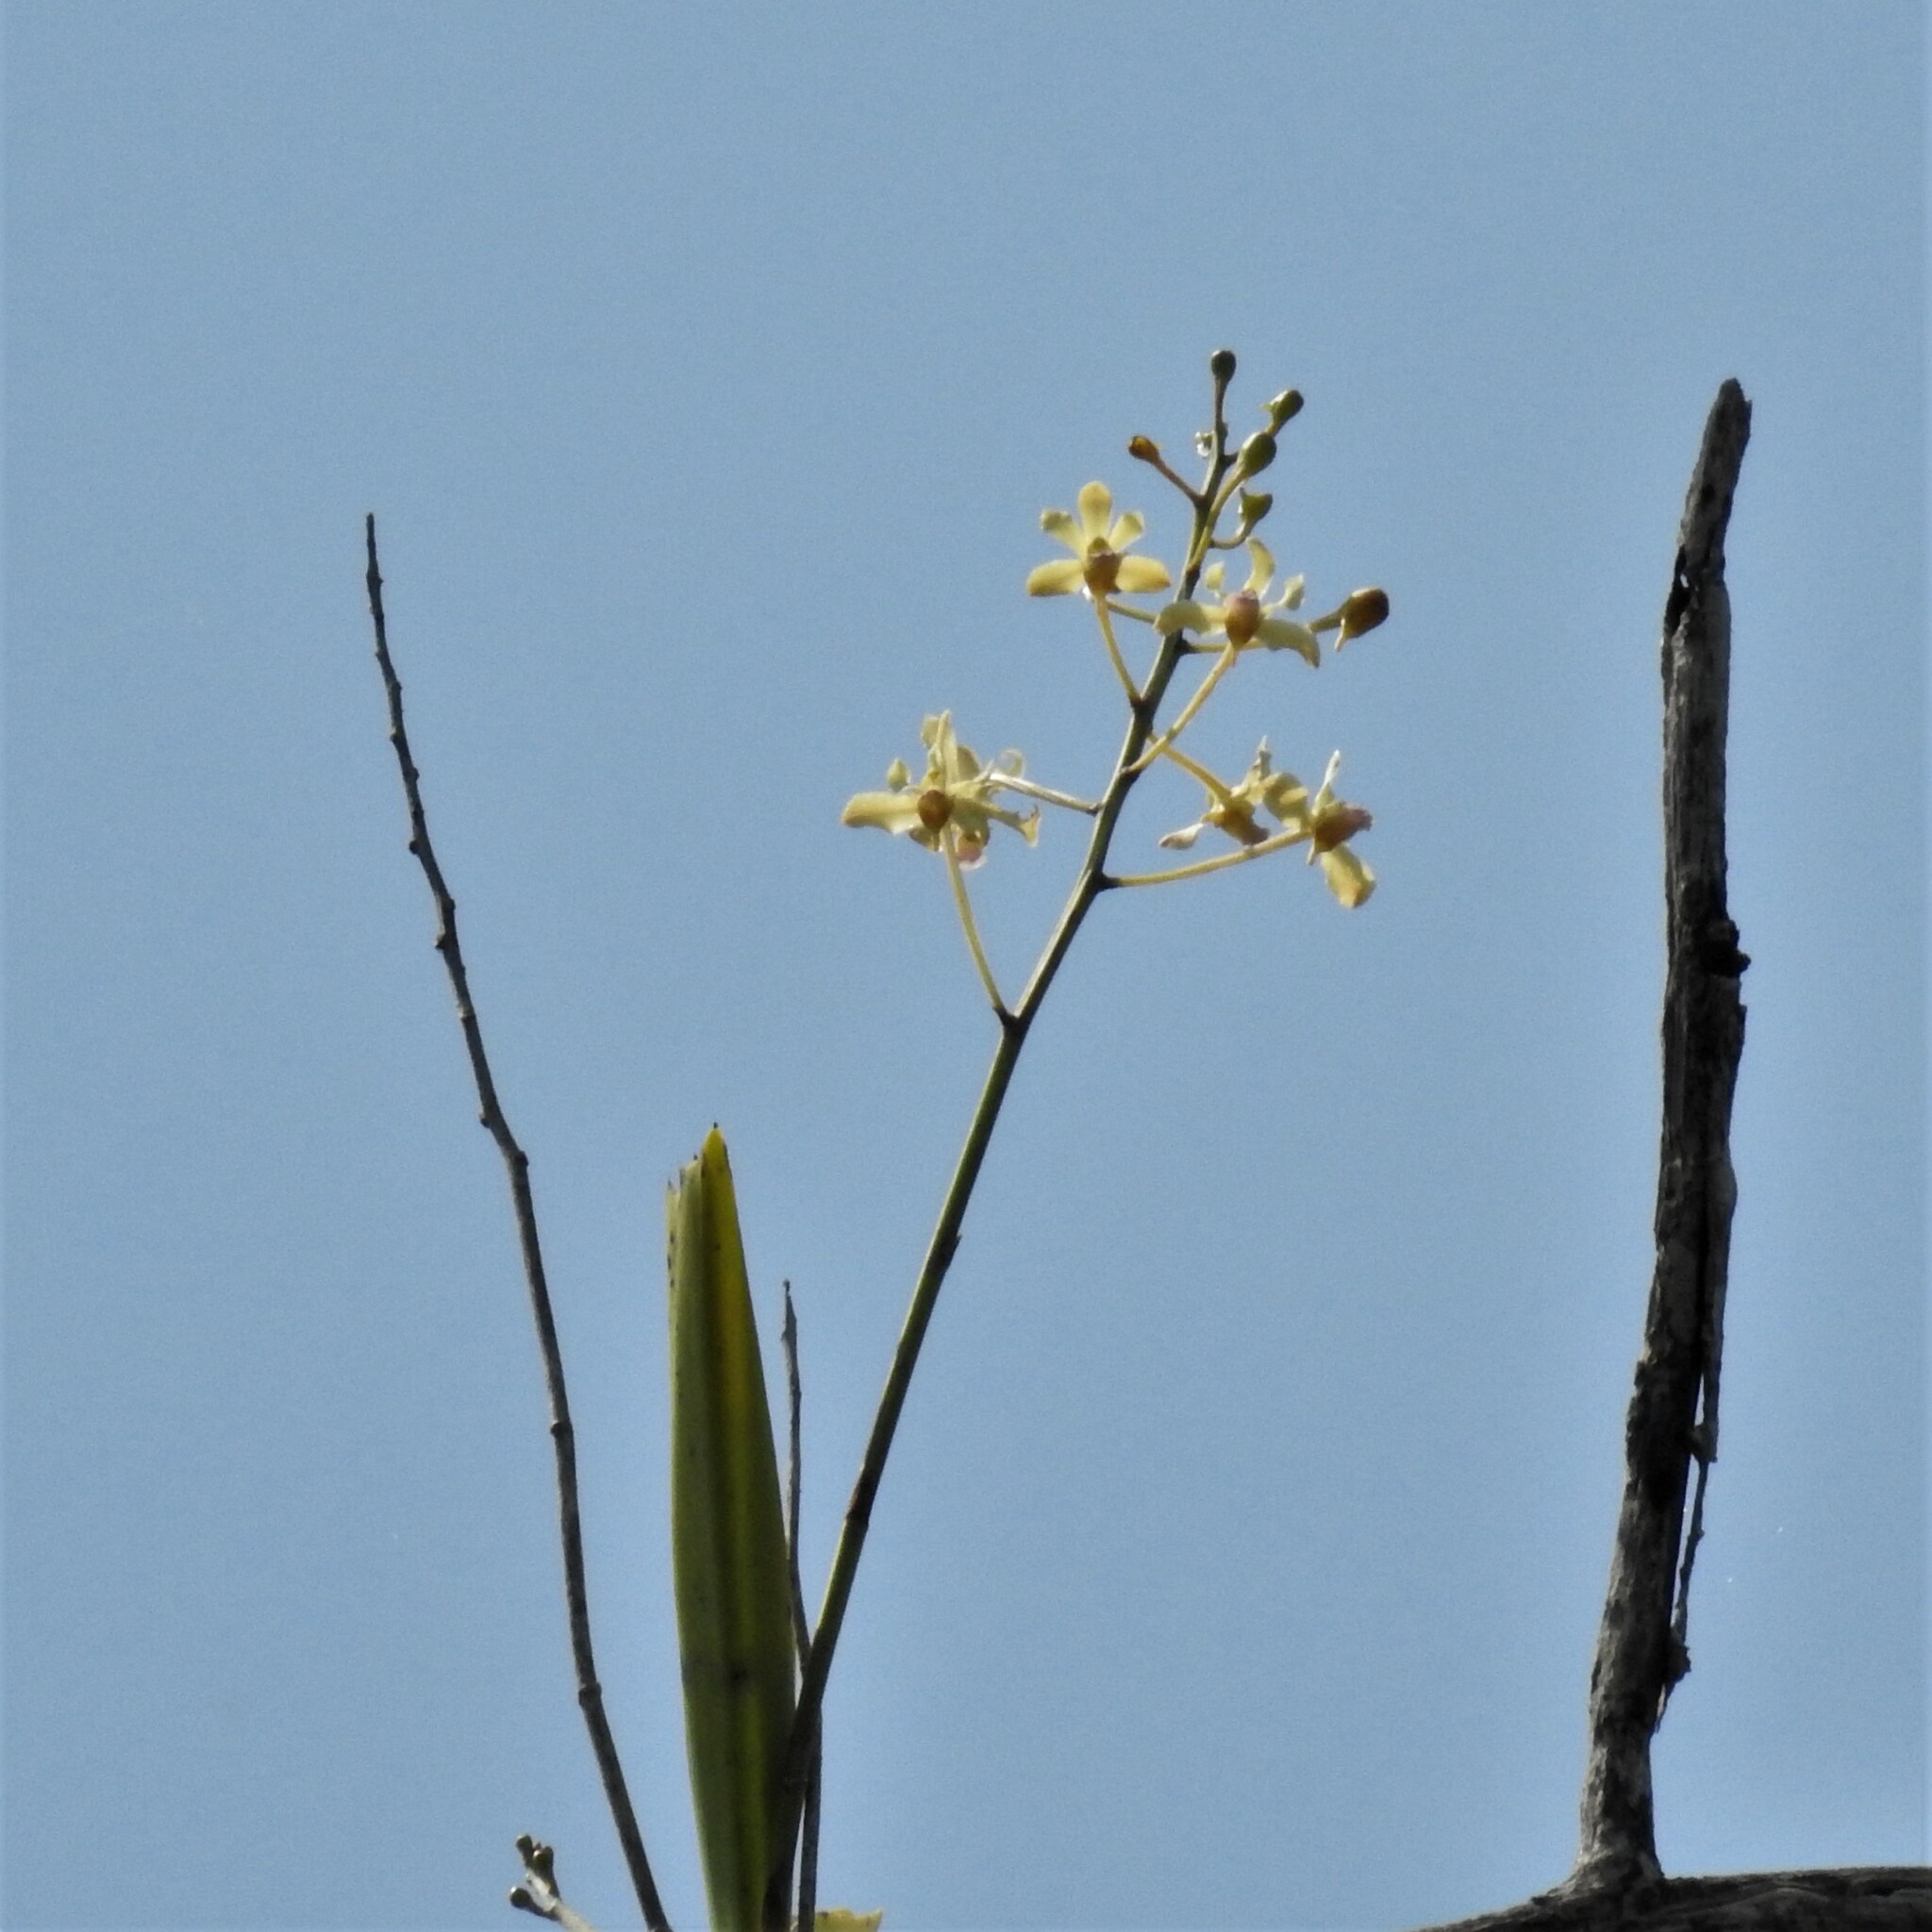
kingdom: Plantae
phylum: Tracheophyta
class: Liliopsida
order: Asparagales
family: Orchidaceae
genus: Vanda
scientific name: Vanda testacea
